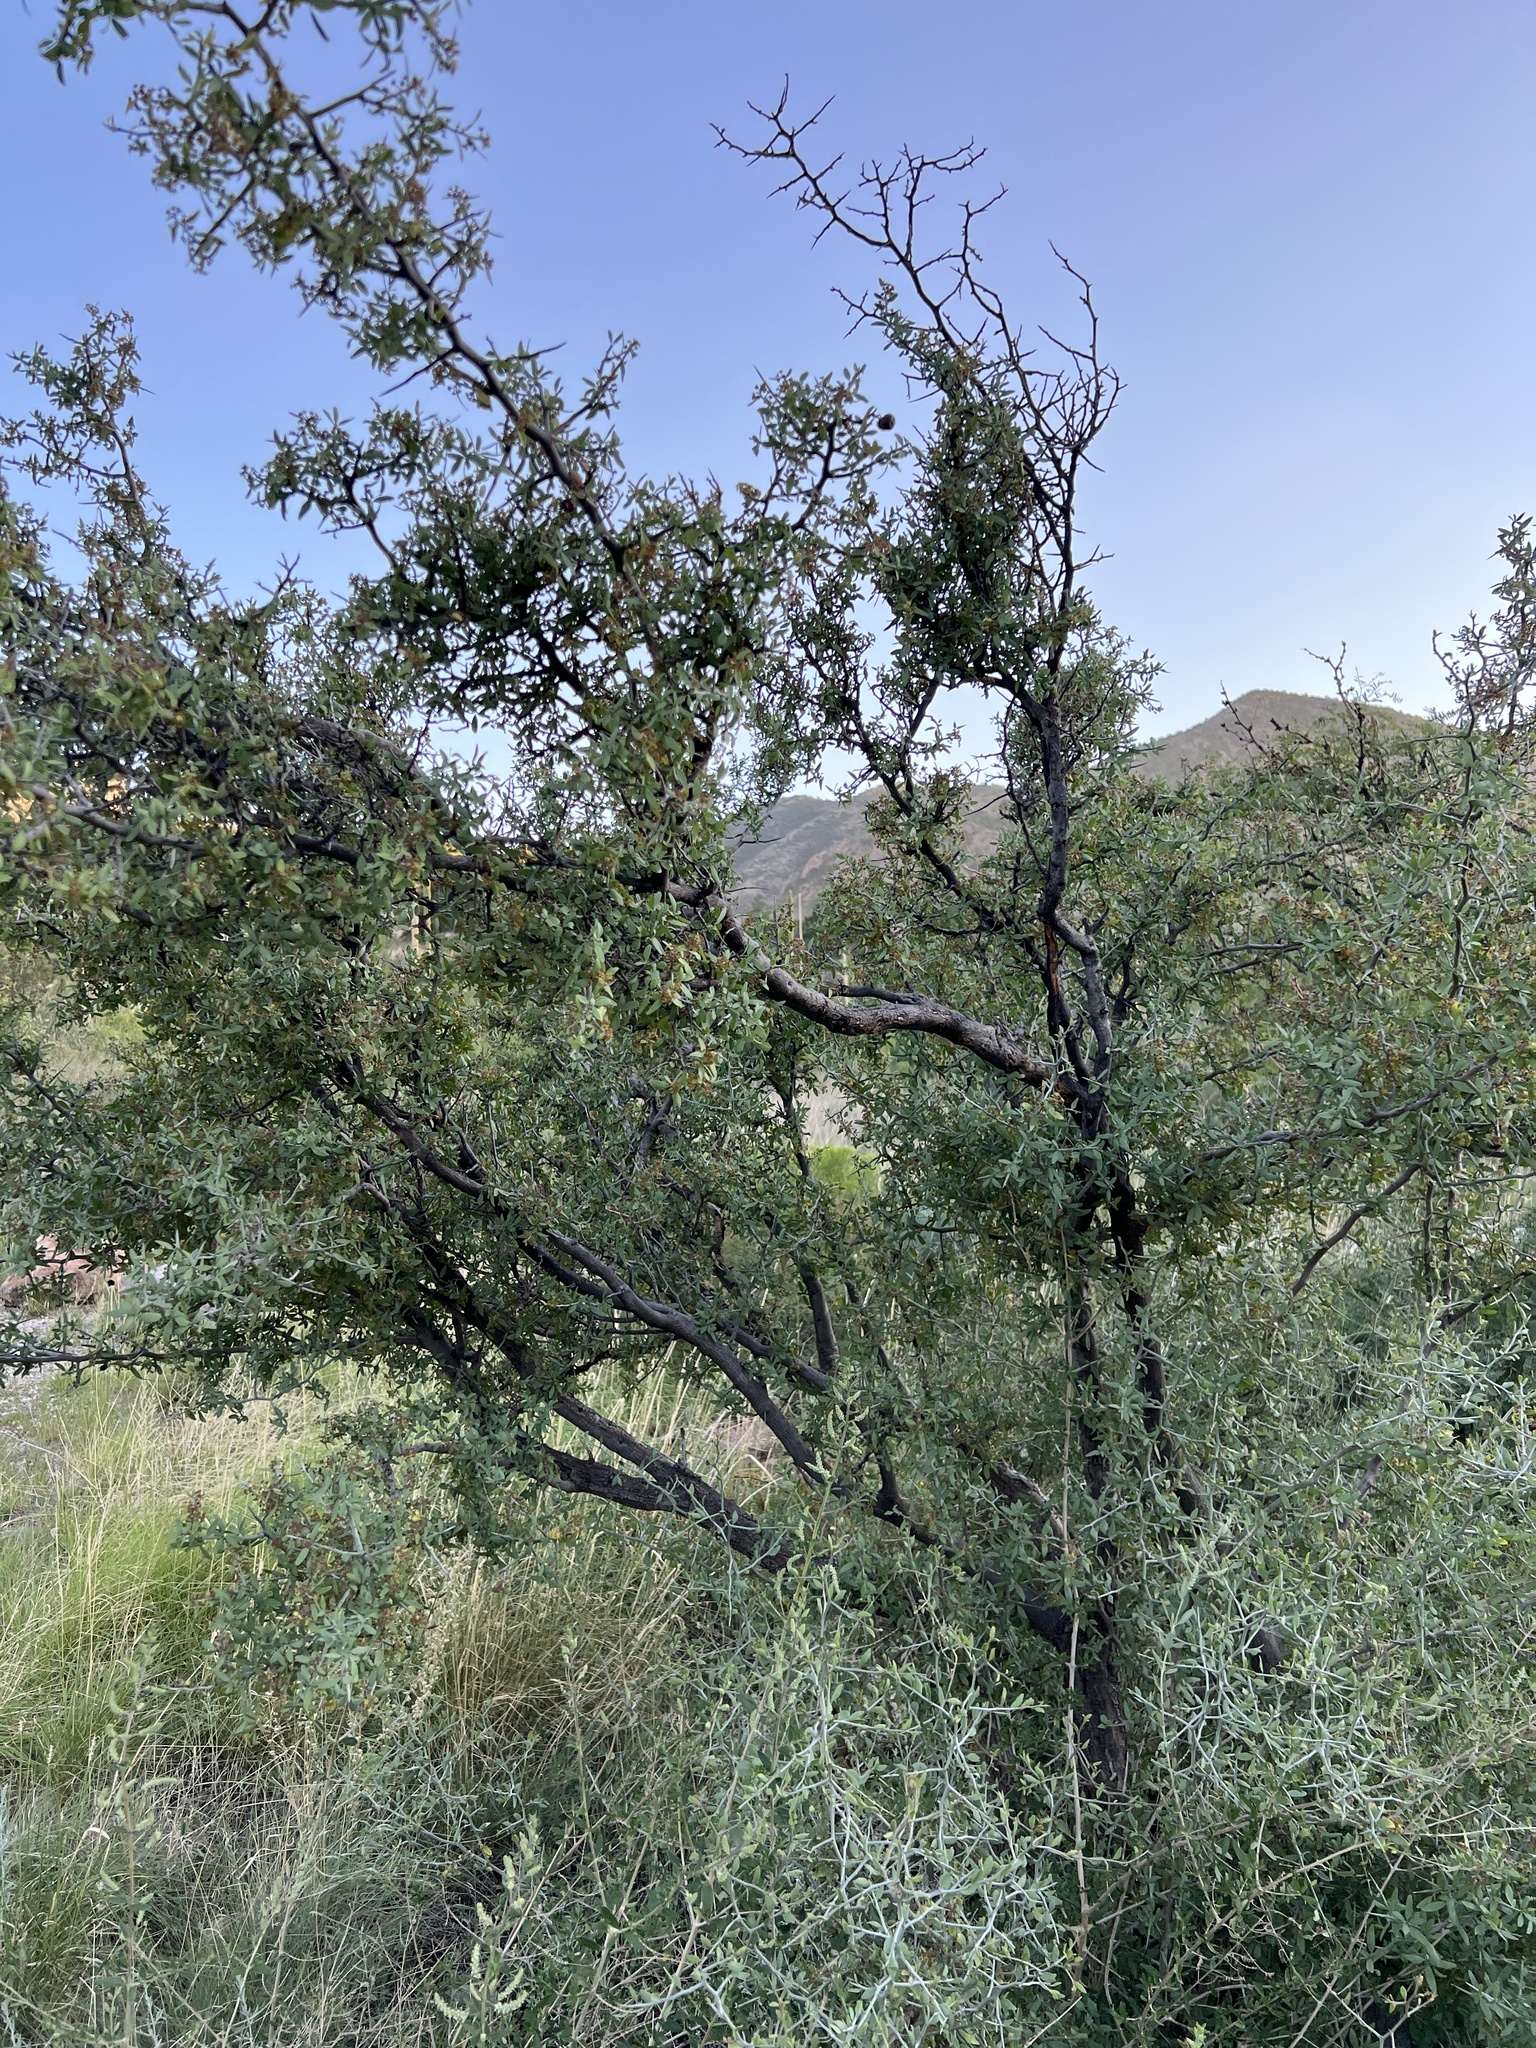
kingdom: Plantae
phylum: Tracheophyta
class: Magnoliopsida
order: Rosales
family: Rhamnaceae
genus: Sarcomphalus
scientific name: Sarcomphalus obtusifolius
